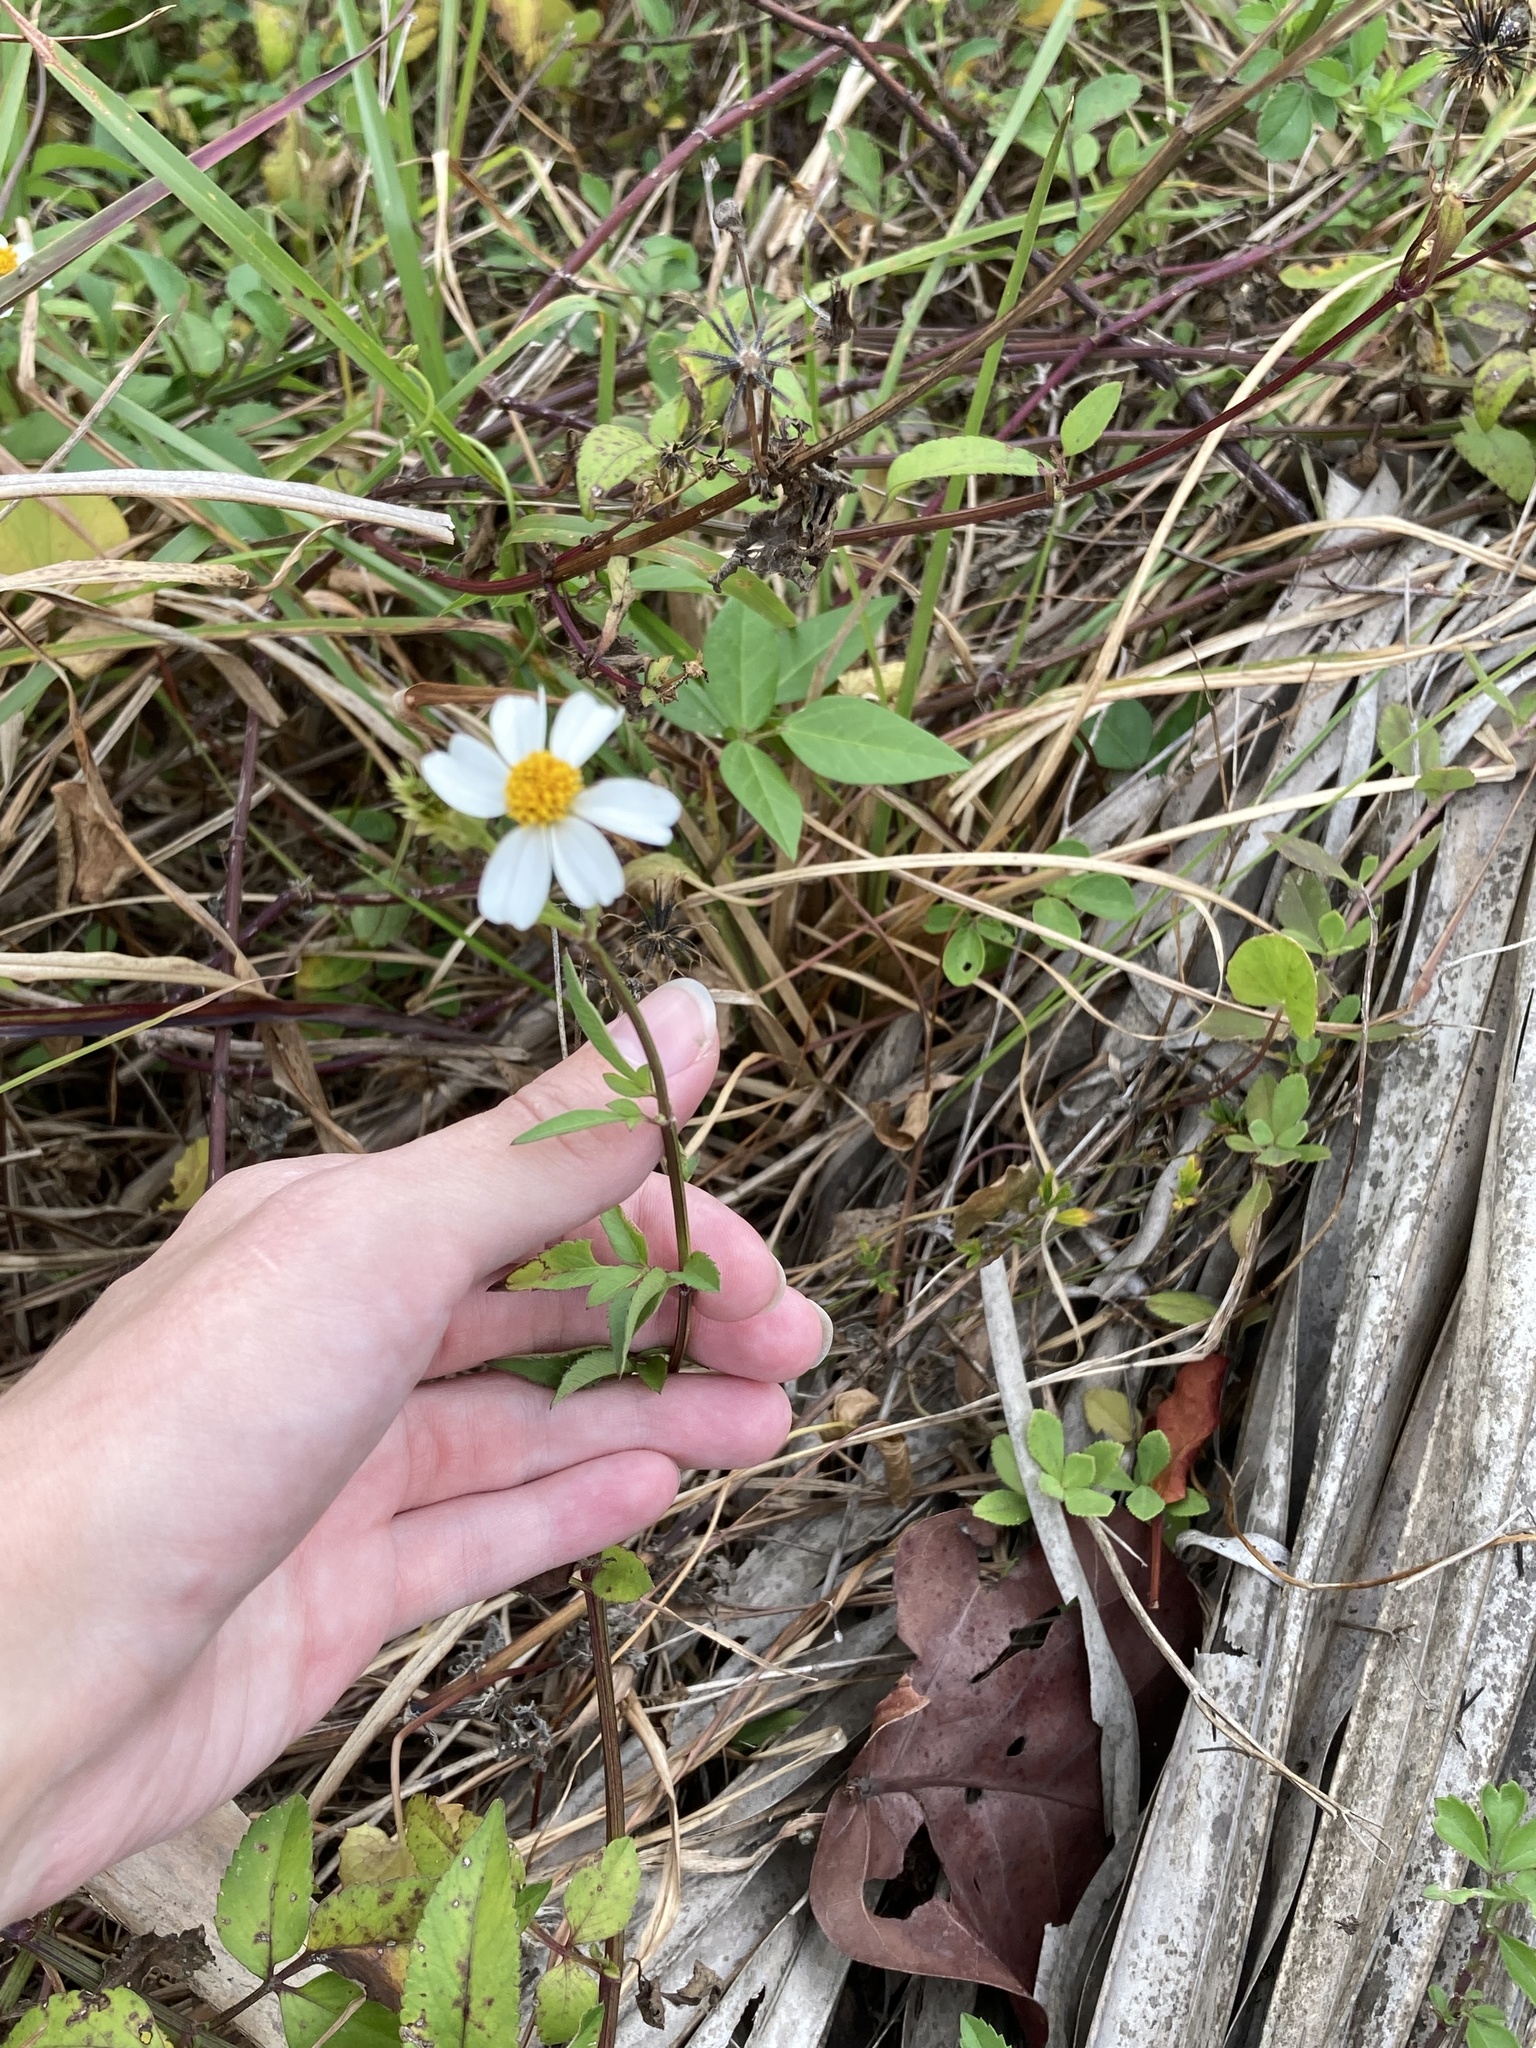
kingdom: Plantae
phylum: Tracheophyta
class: Magnoliopsida
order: Asterales
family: Asteraceae
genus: Bidens
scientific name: Bidens alba
